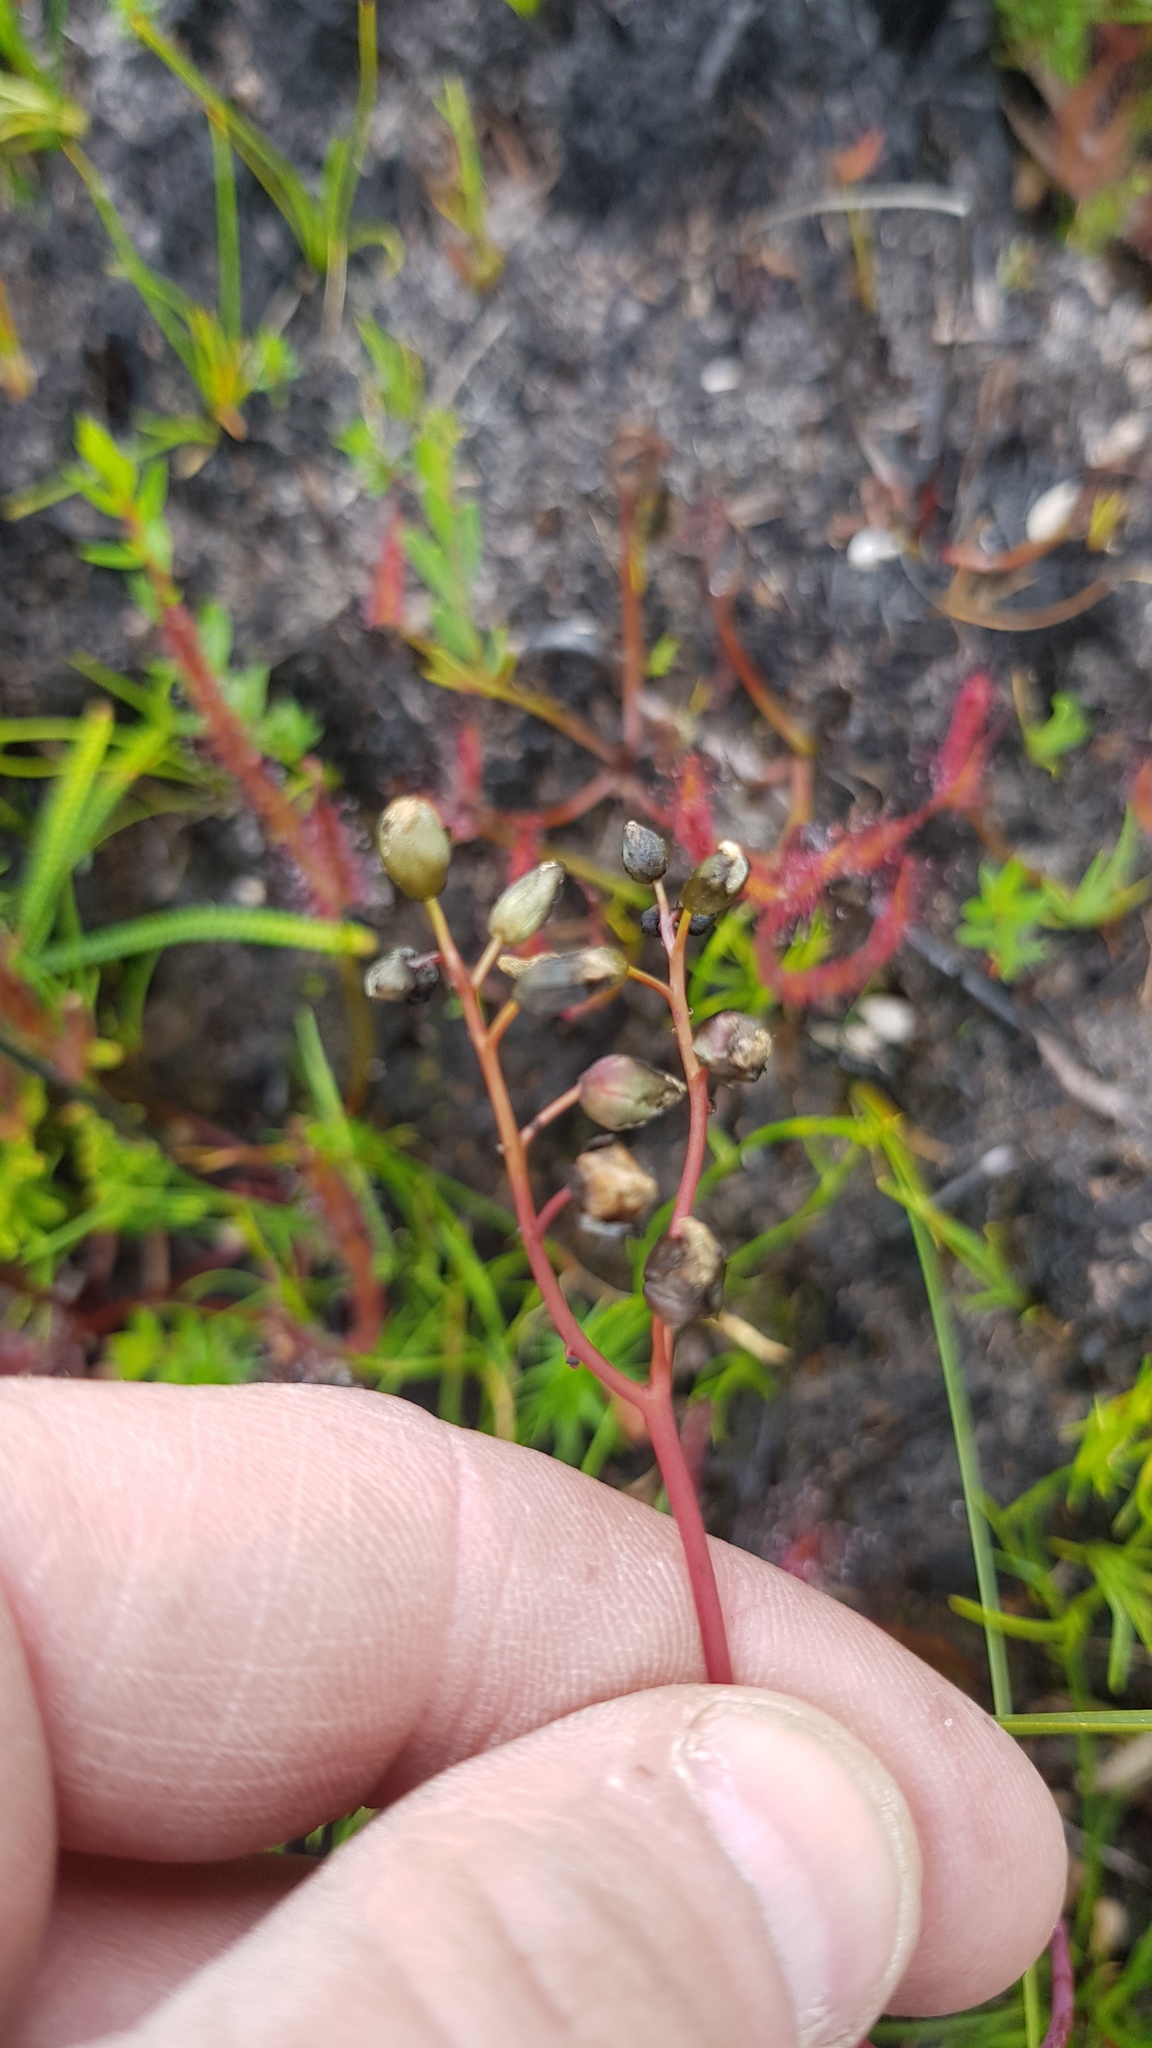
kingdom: Plantae
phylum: Tracheophyta
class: Magnoliopsida
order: Caryophyllales
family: Droseraceae
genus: Drosera
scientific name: Drosera binata
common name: Forked sundew
